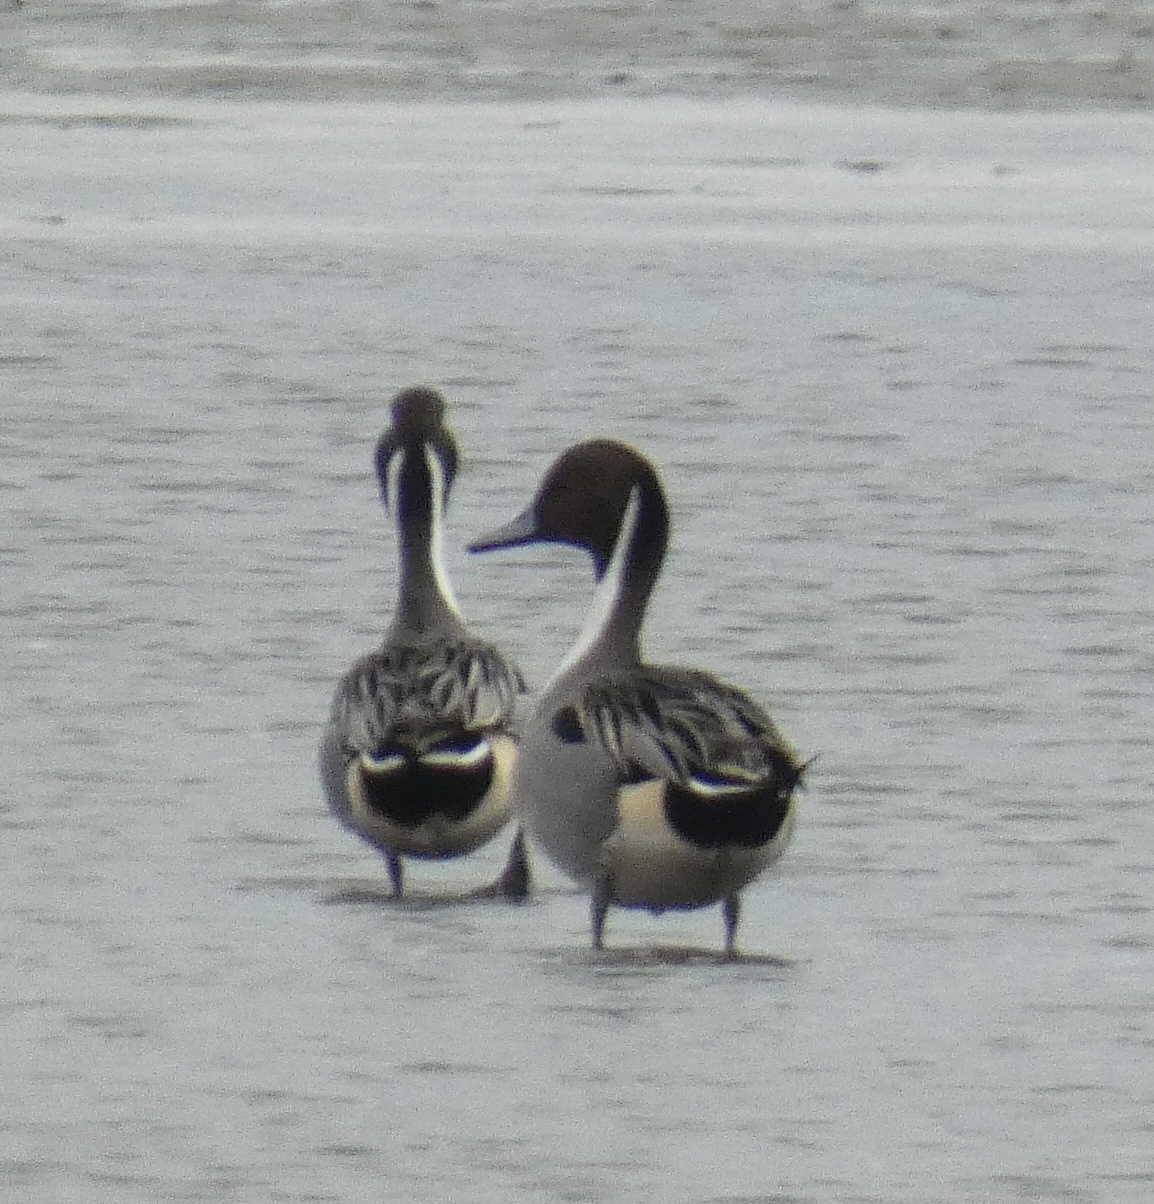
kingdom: Animalia
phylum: Chordata
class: Aves
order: Anseriformes
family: Anatidae
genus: Anas
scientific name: Anas acuta
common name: Northern pintail
